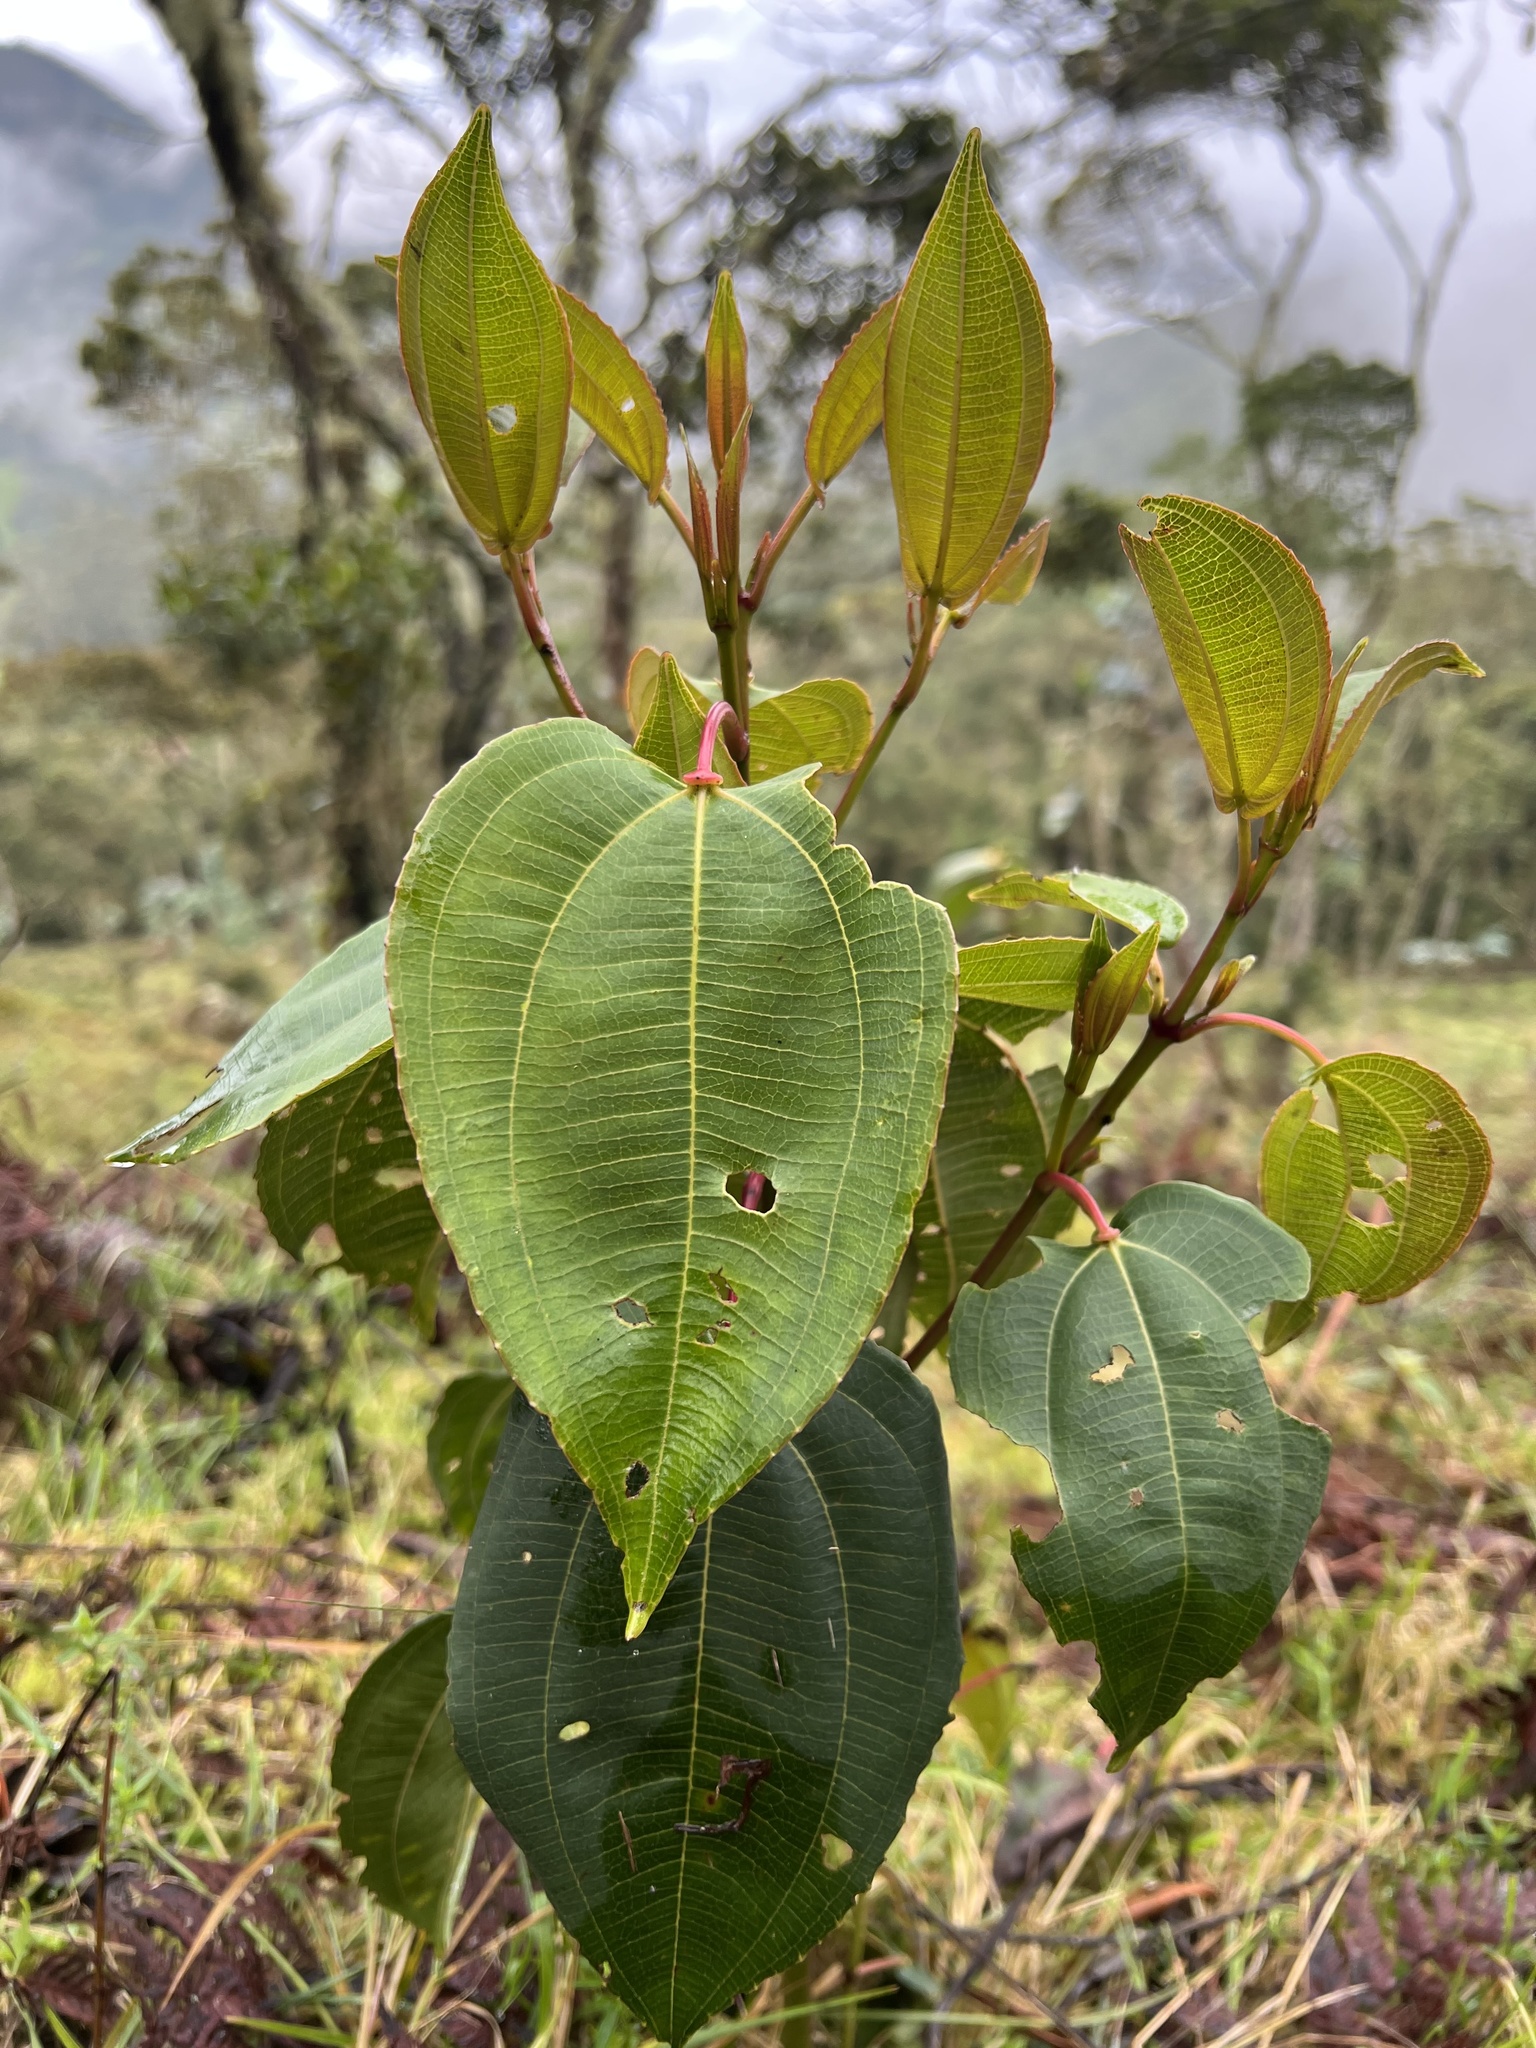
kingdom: Plantae
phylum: Tracheophyta
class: Magnoliopsida
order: Myrtales
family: Melastomataceae
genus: Axinaea
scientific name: Axinaea scutigera
